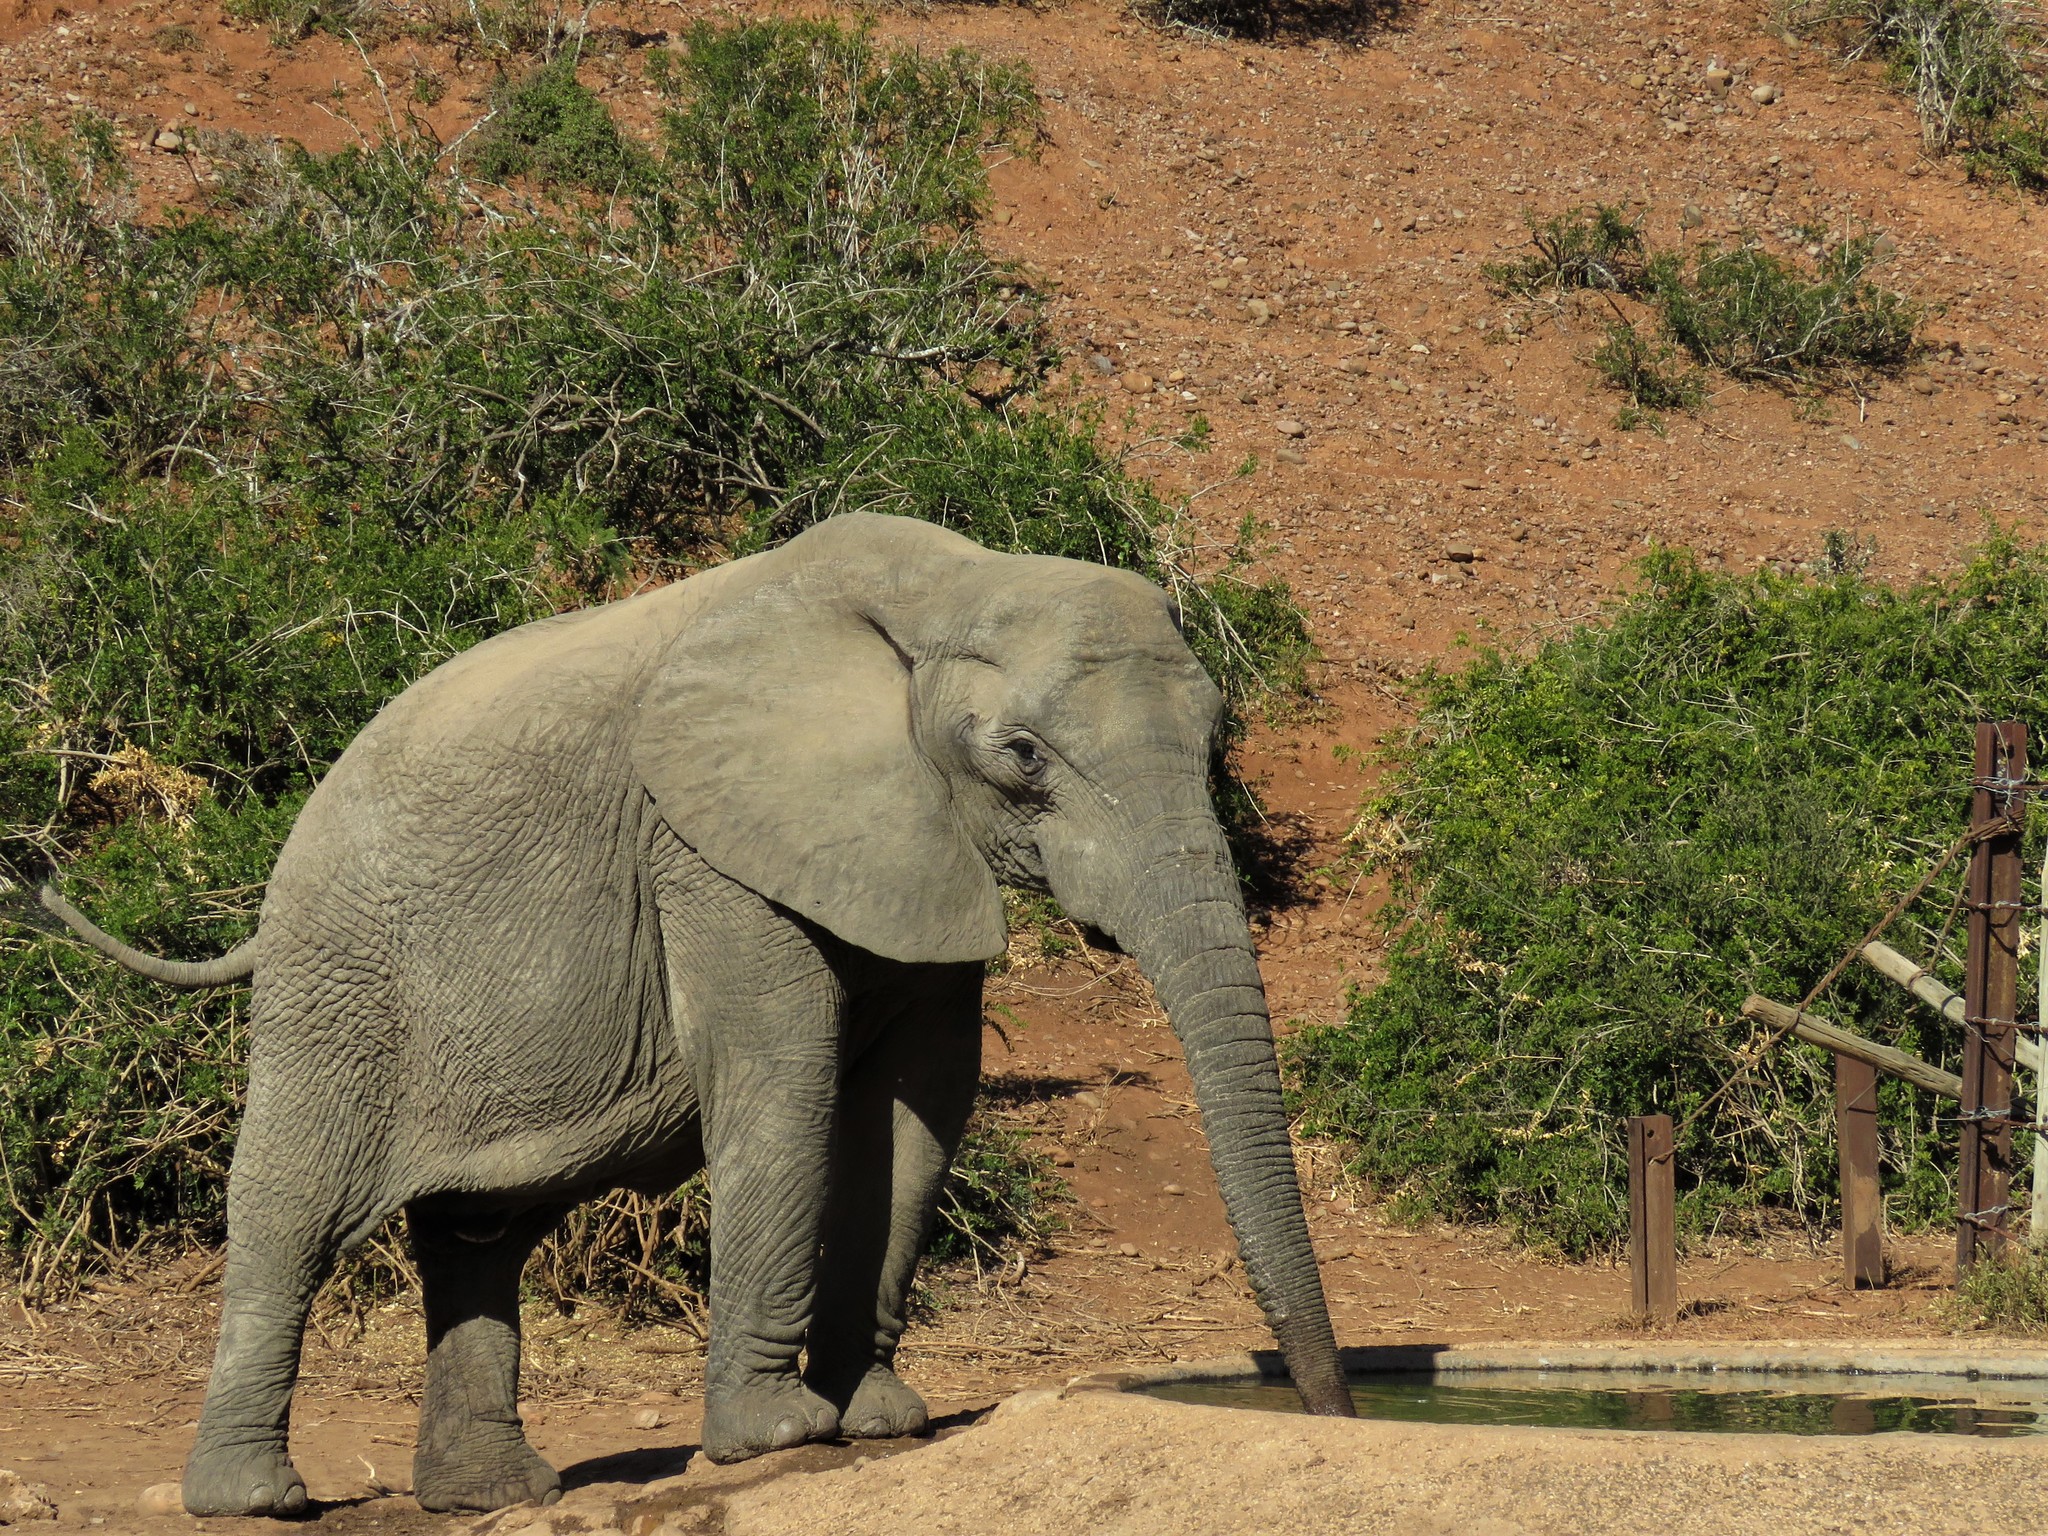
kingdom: Animalia
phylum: Chordata
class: Mammalia
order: Proboscidea
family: Elephantidae
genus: Loxodonta
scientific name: Loxodonta africana
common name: African elephant
